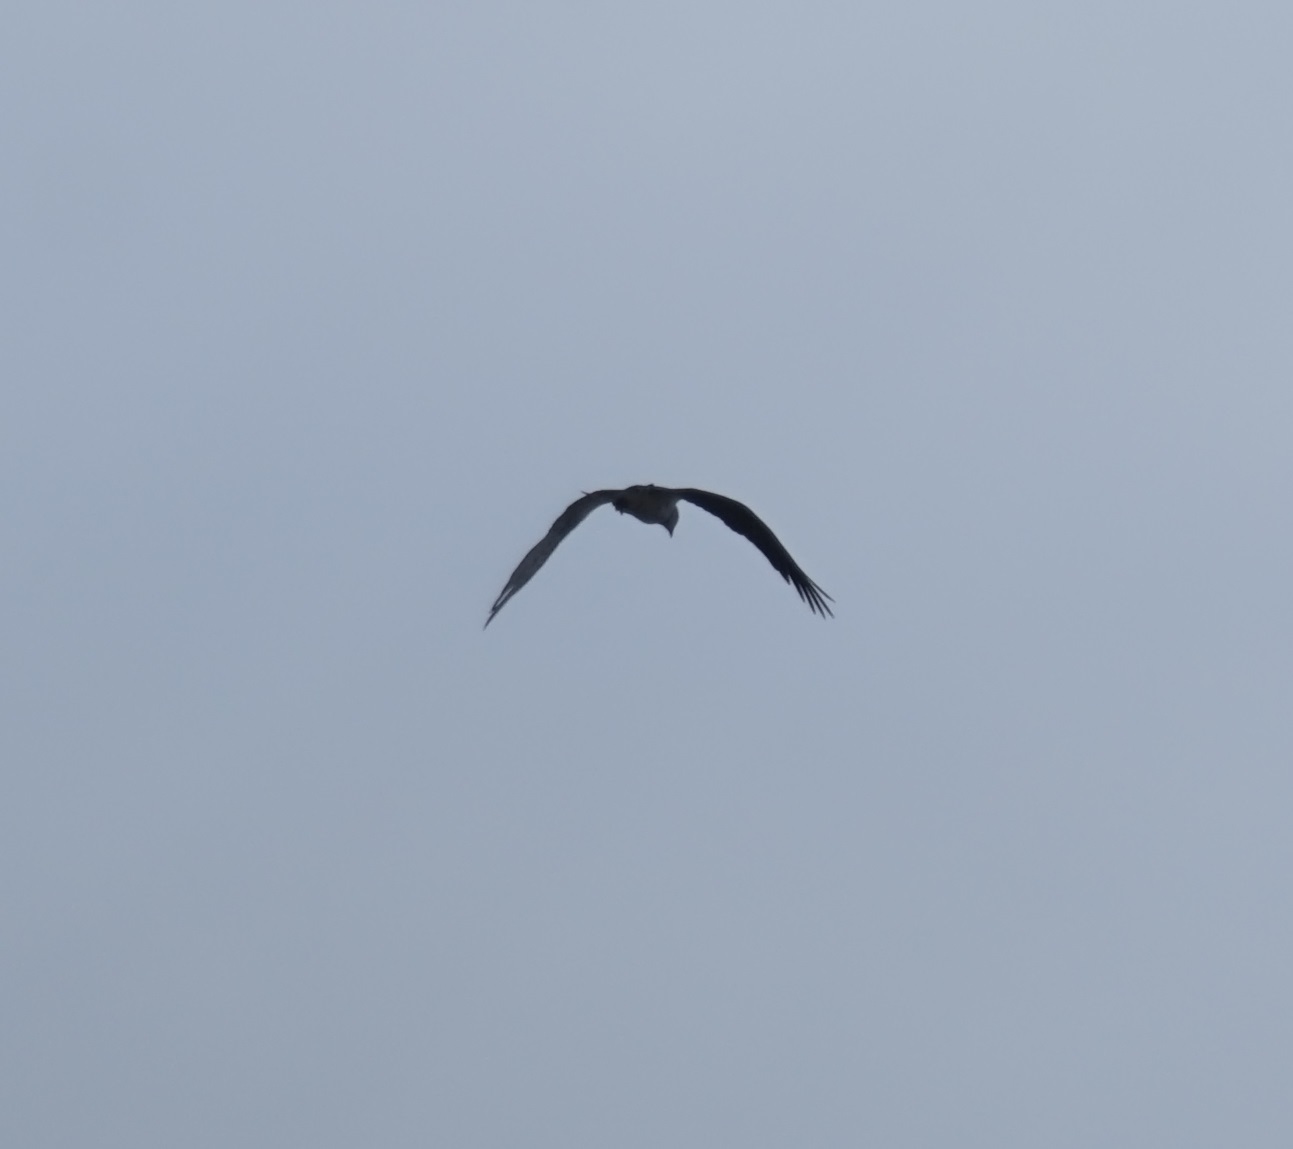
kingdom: Animalia
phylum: Chordata
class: Aves
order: Accipitriformes
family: Pandionidae
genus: Pandion
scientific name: Pandion cristatus
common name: Eastern osprey
